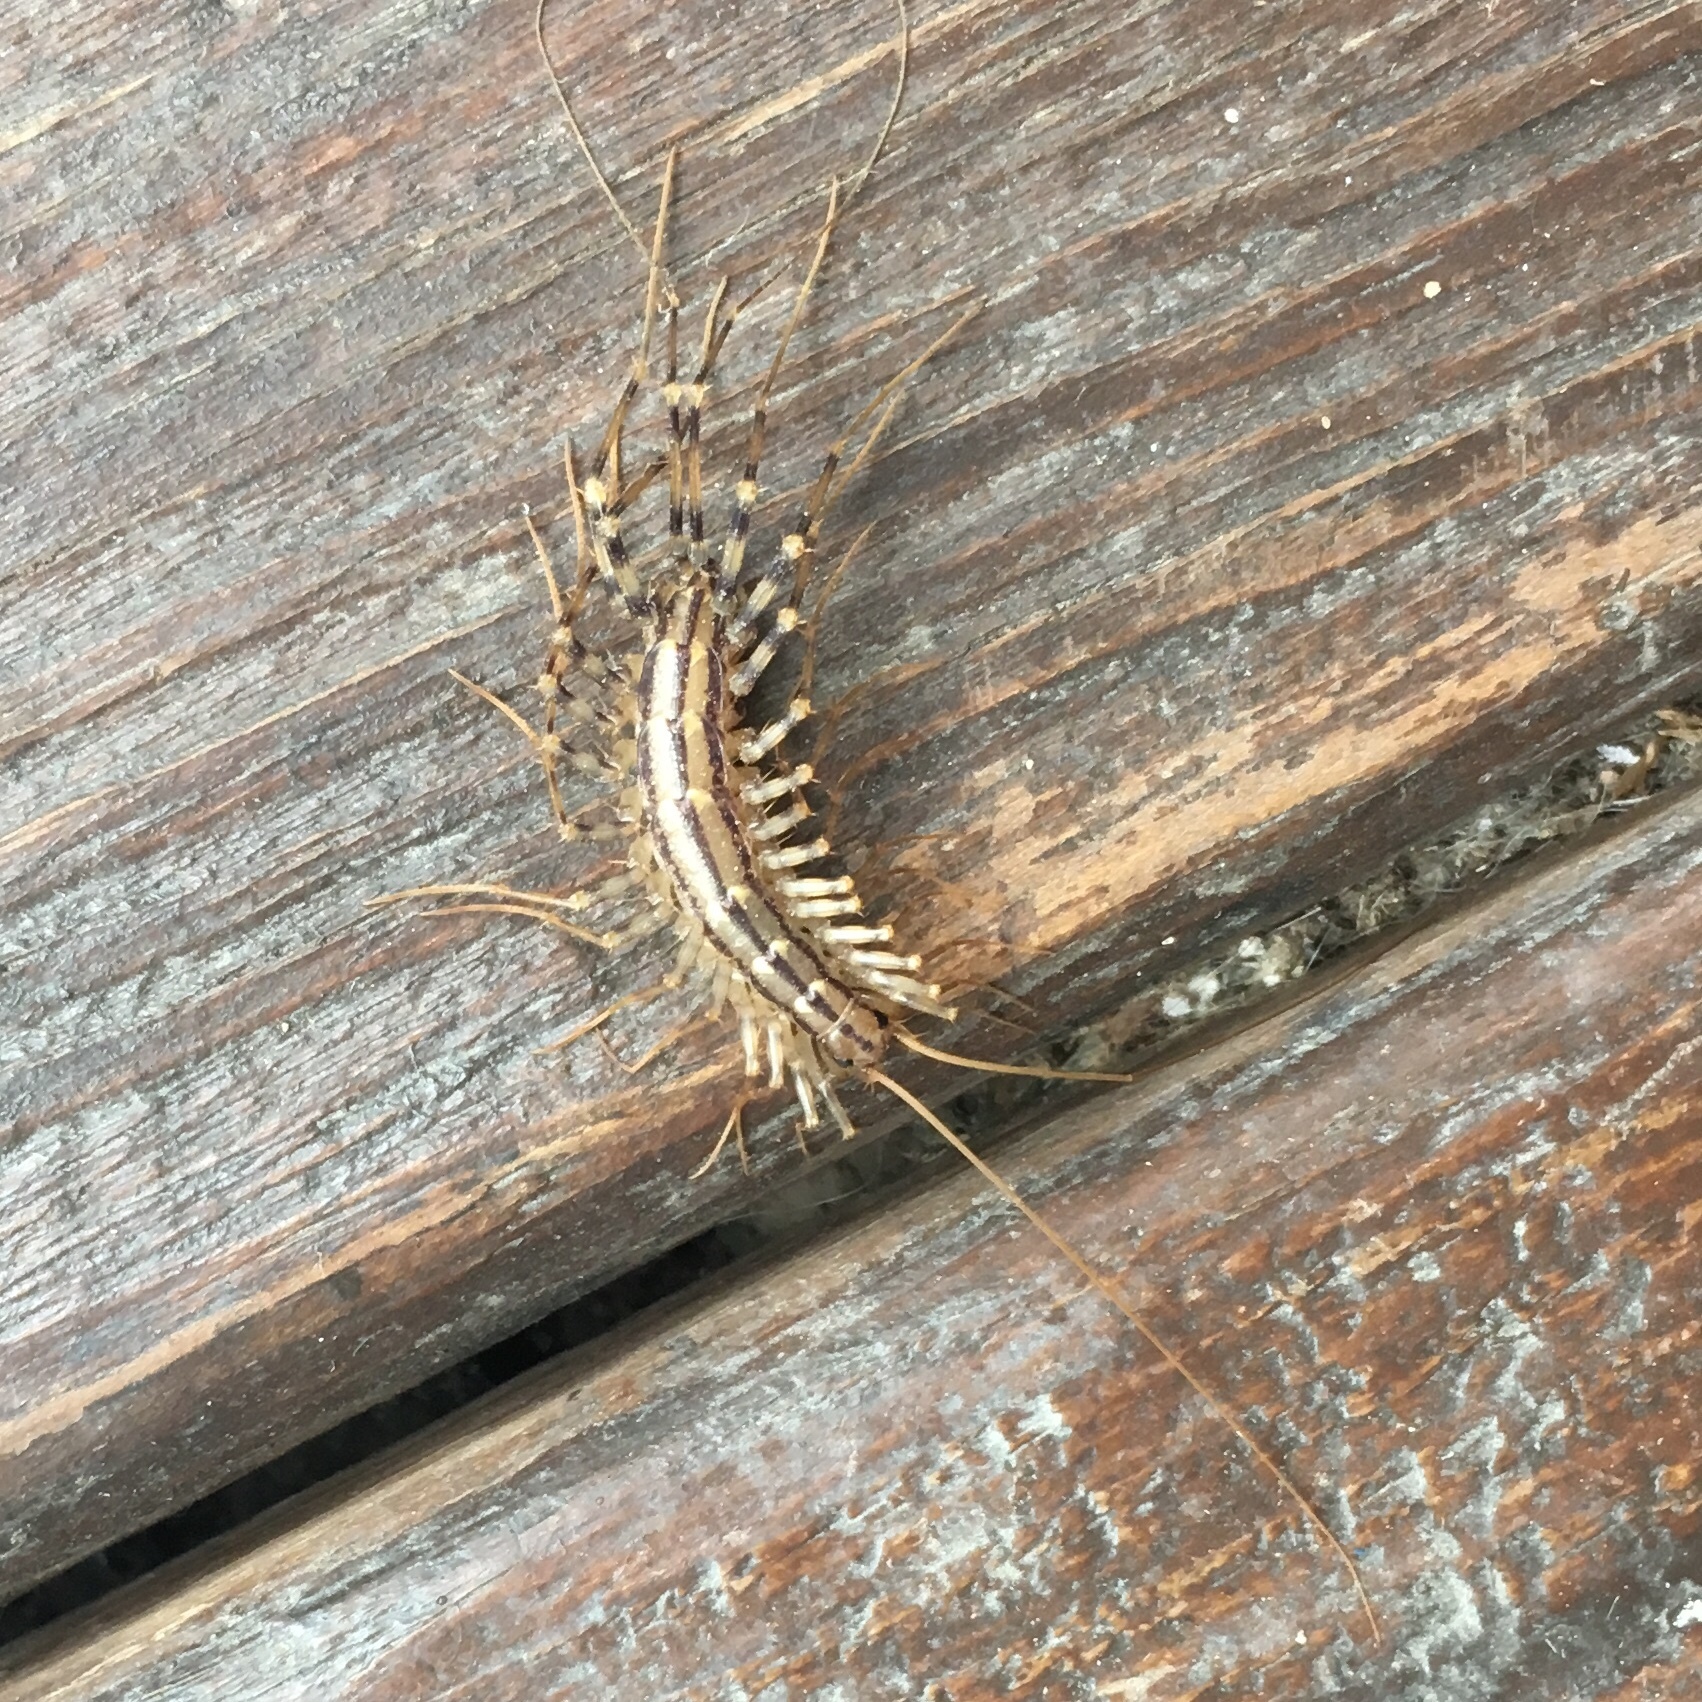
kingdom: Animalia
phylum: Arthropoda
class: Chilopoda
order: Scutigeromorpha
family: Scutigeridae
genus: Scutigera
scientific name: Scutigera coleoptrata
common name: House centipede
